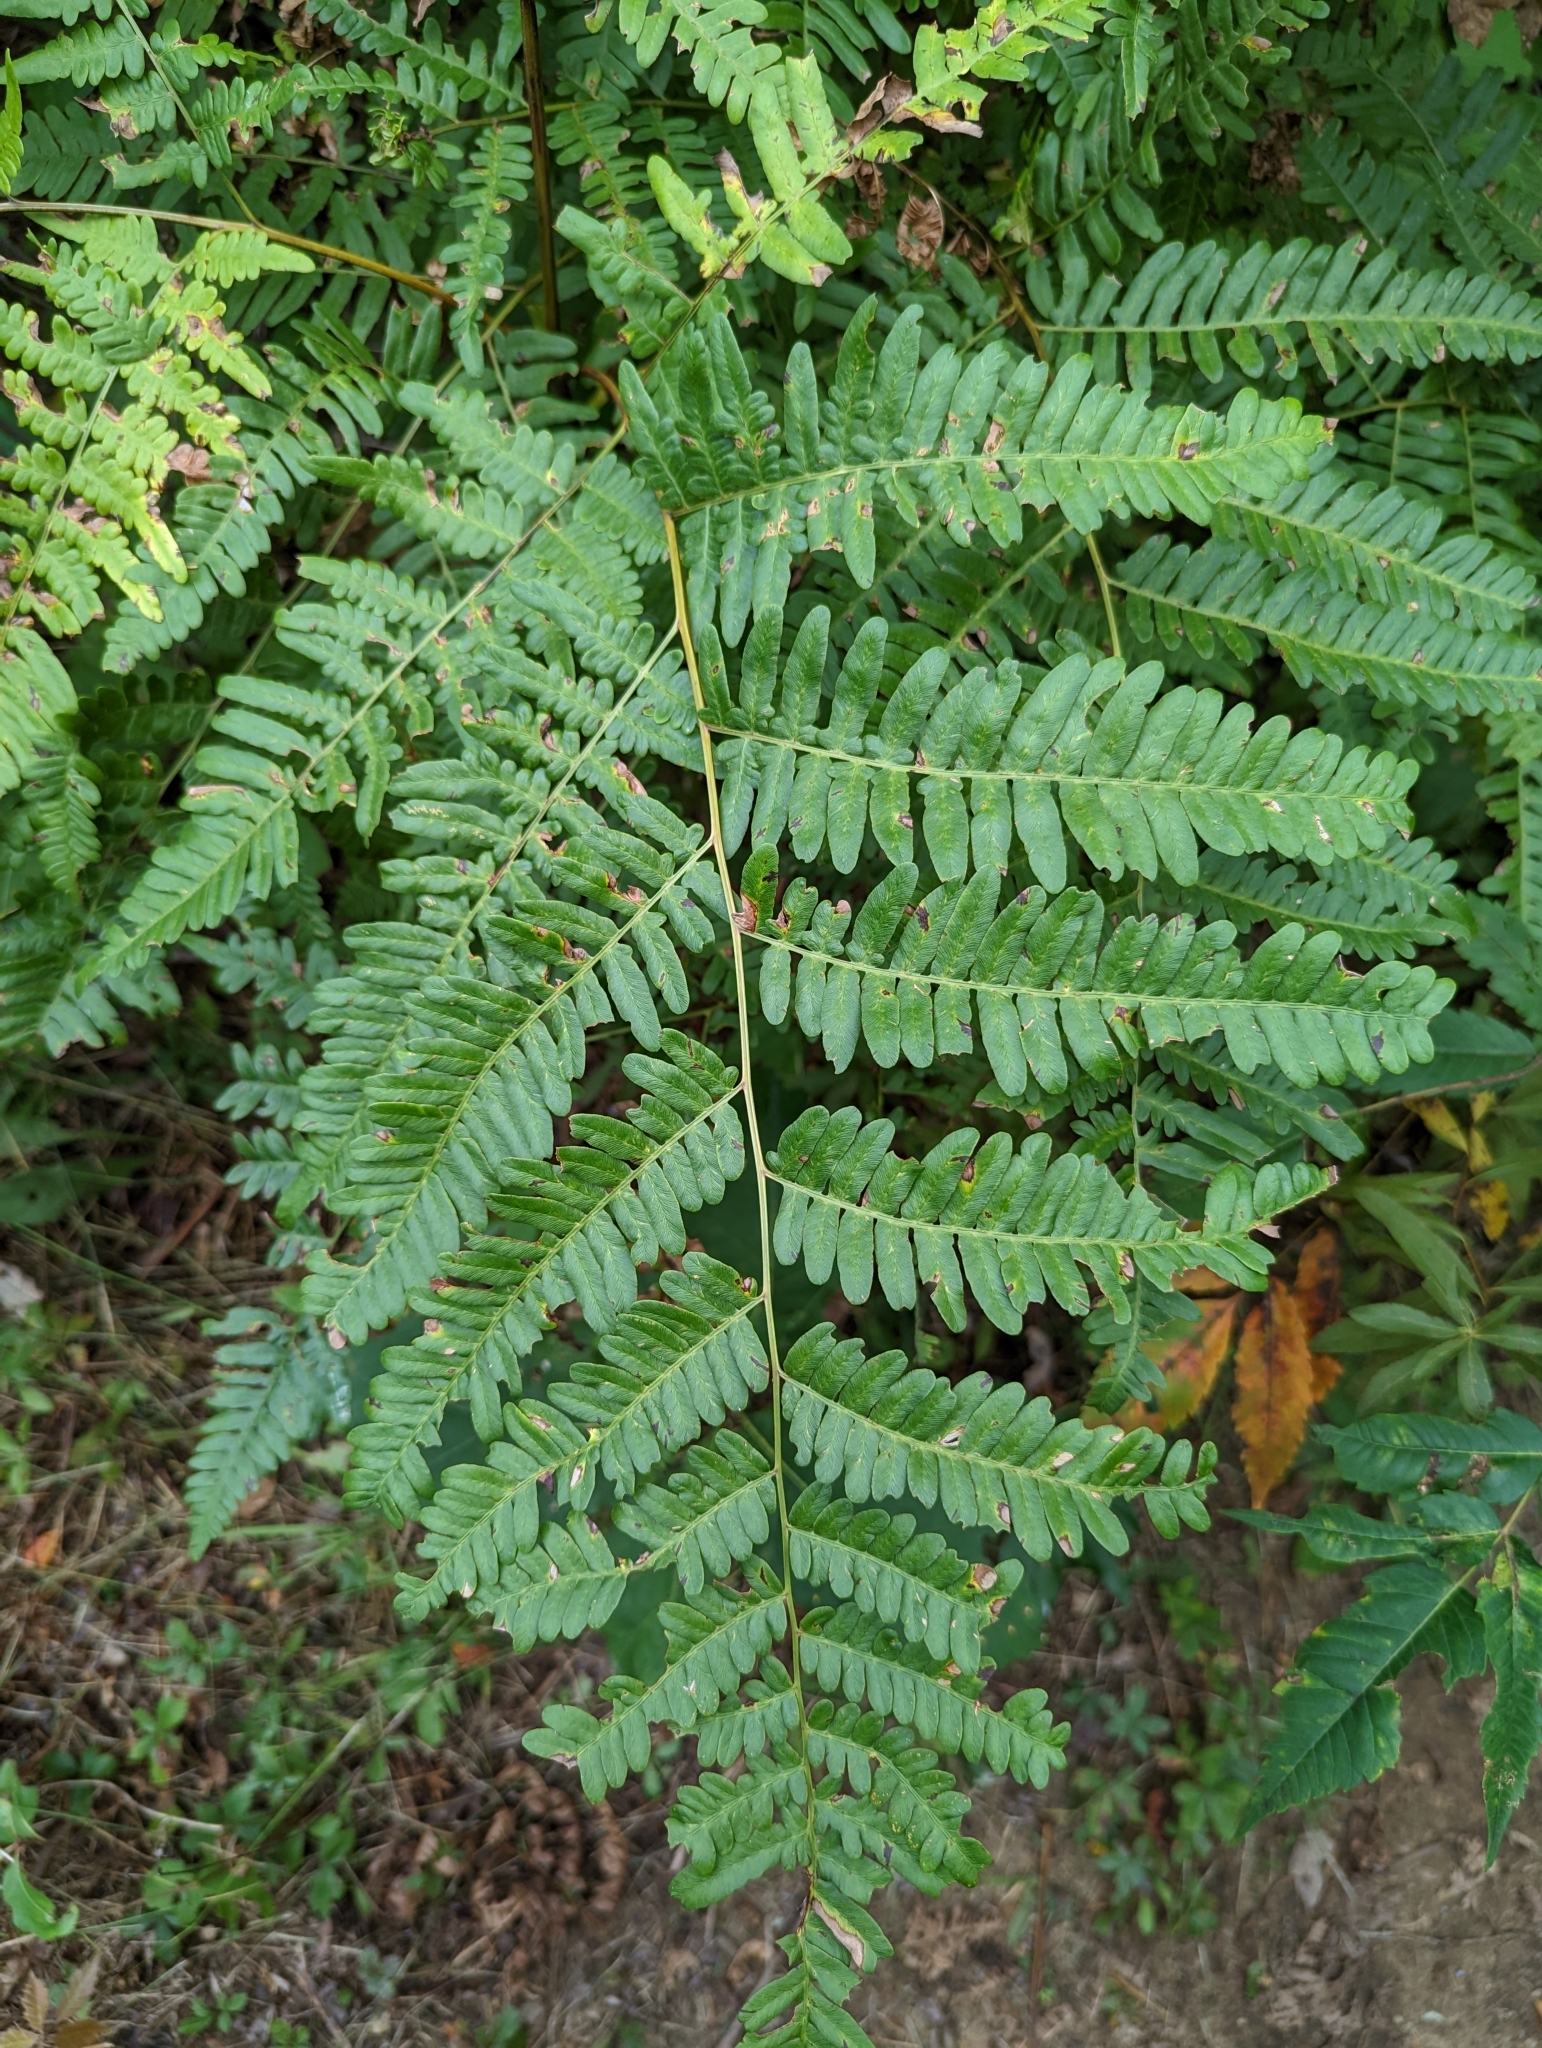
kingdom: Plantae
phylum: Tracheophyta
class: Polypodiopsida
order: Polypodiales
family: Dennstaedtiaceae
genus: Pteridium
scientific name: Pteridium aquilinum
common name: Bracken
